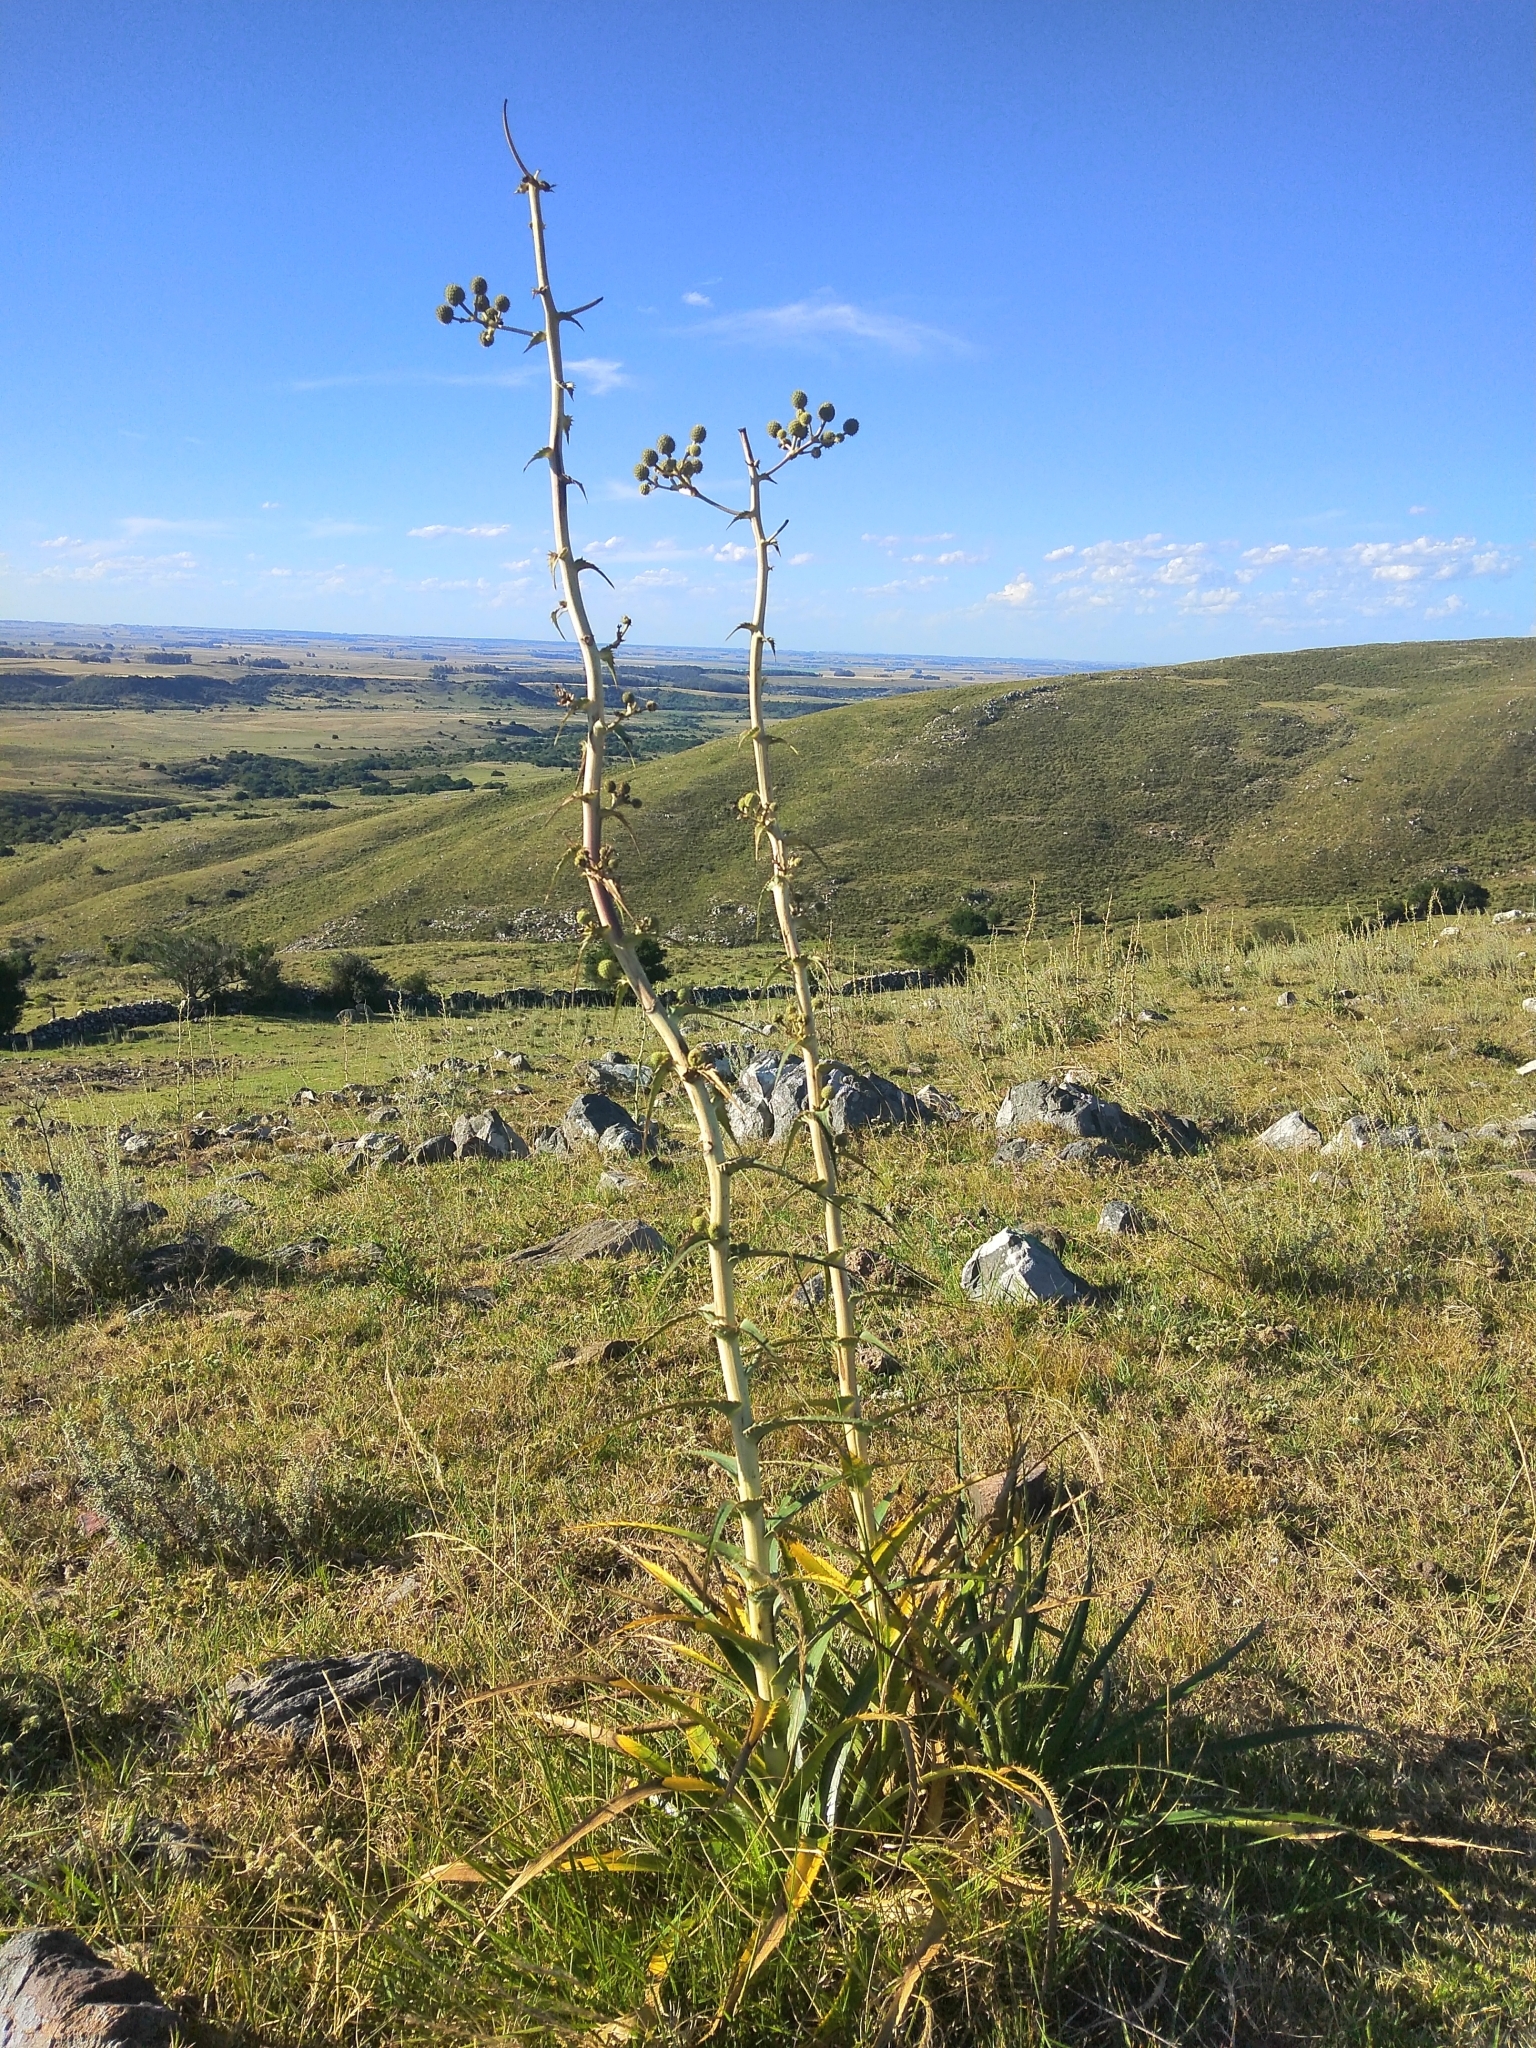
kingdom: Plantae
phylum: Tracheophyta
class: Magnoliopsida
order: Apiales
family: Apiaceae
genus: Eryngium
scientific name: Eryngium horridum
